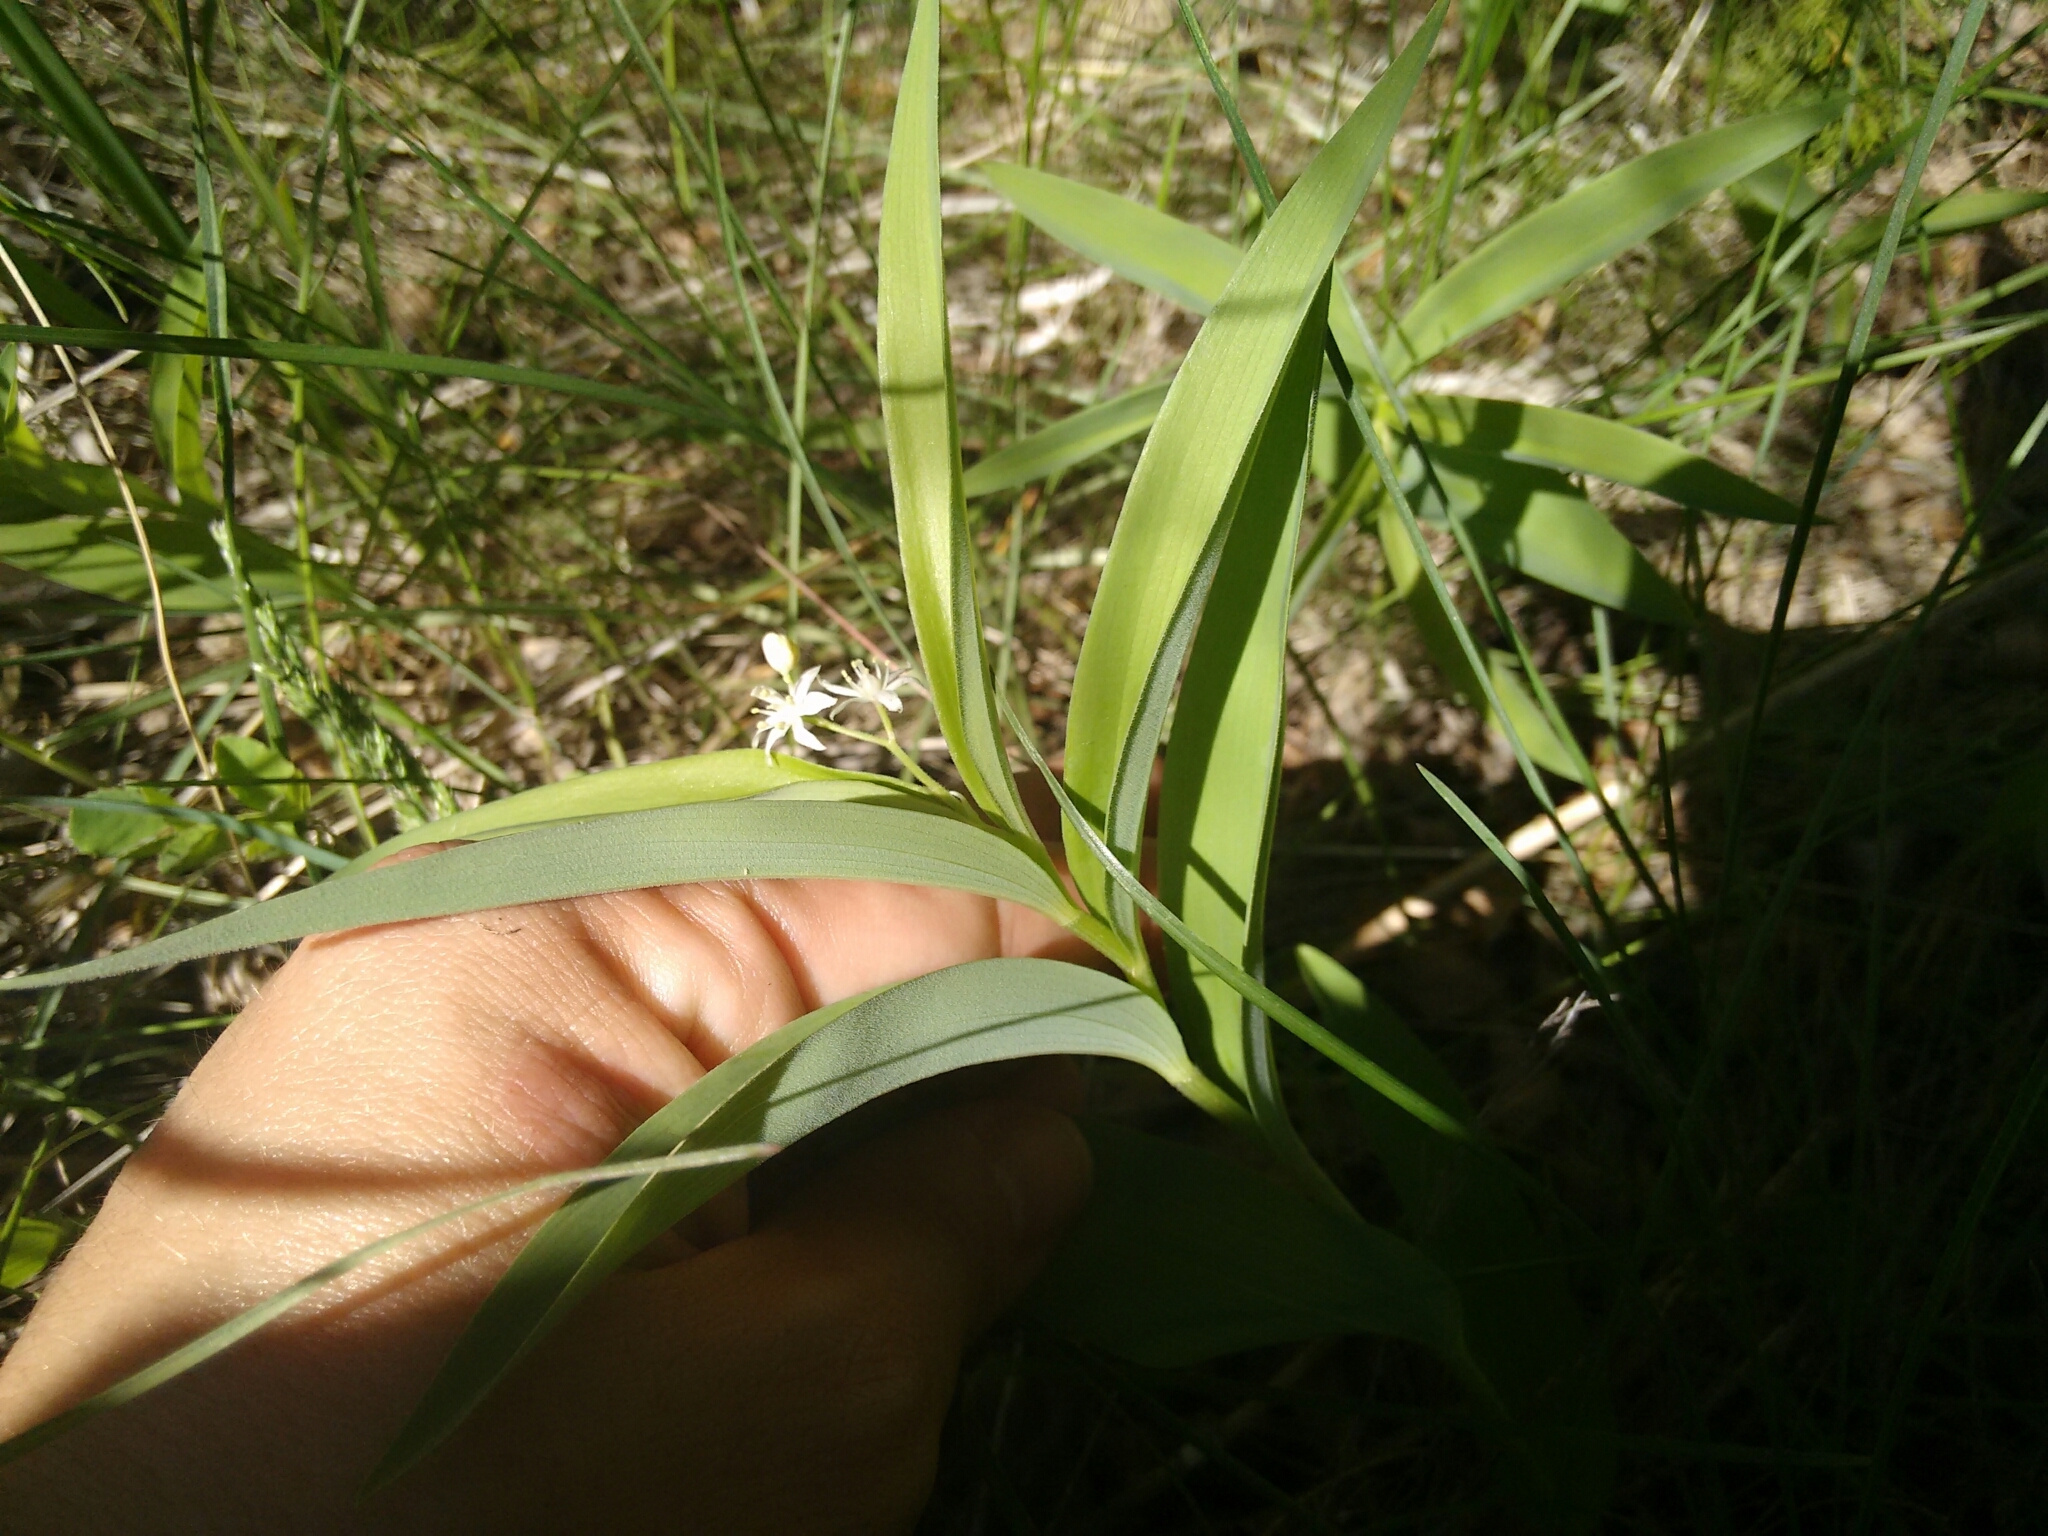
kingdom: Plantae
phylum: Tracheophyta
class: Liliopsida
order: Asparagales
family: Asparagaceae
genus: Maianthemum
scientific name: Maianthemum stellatum
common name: Little false solomon's seal
